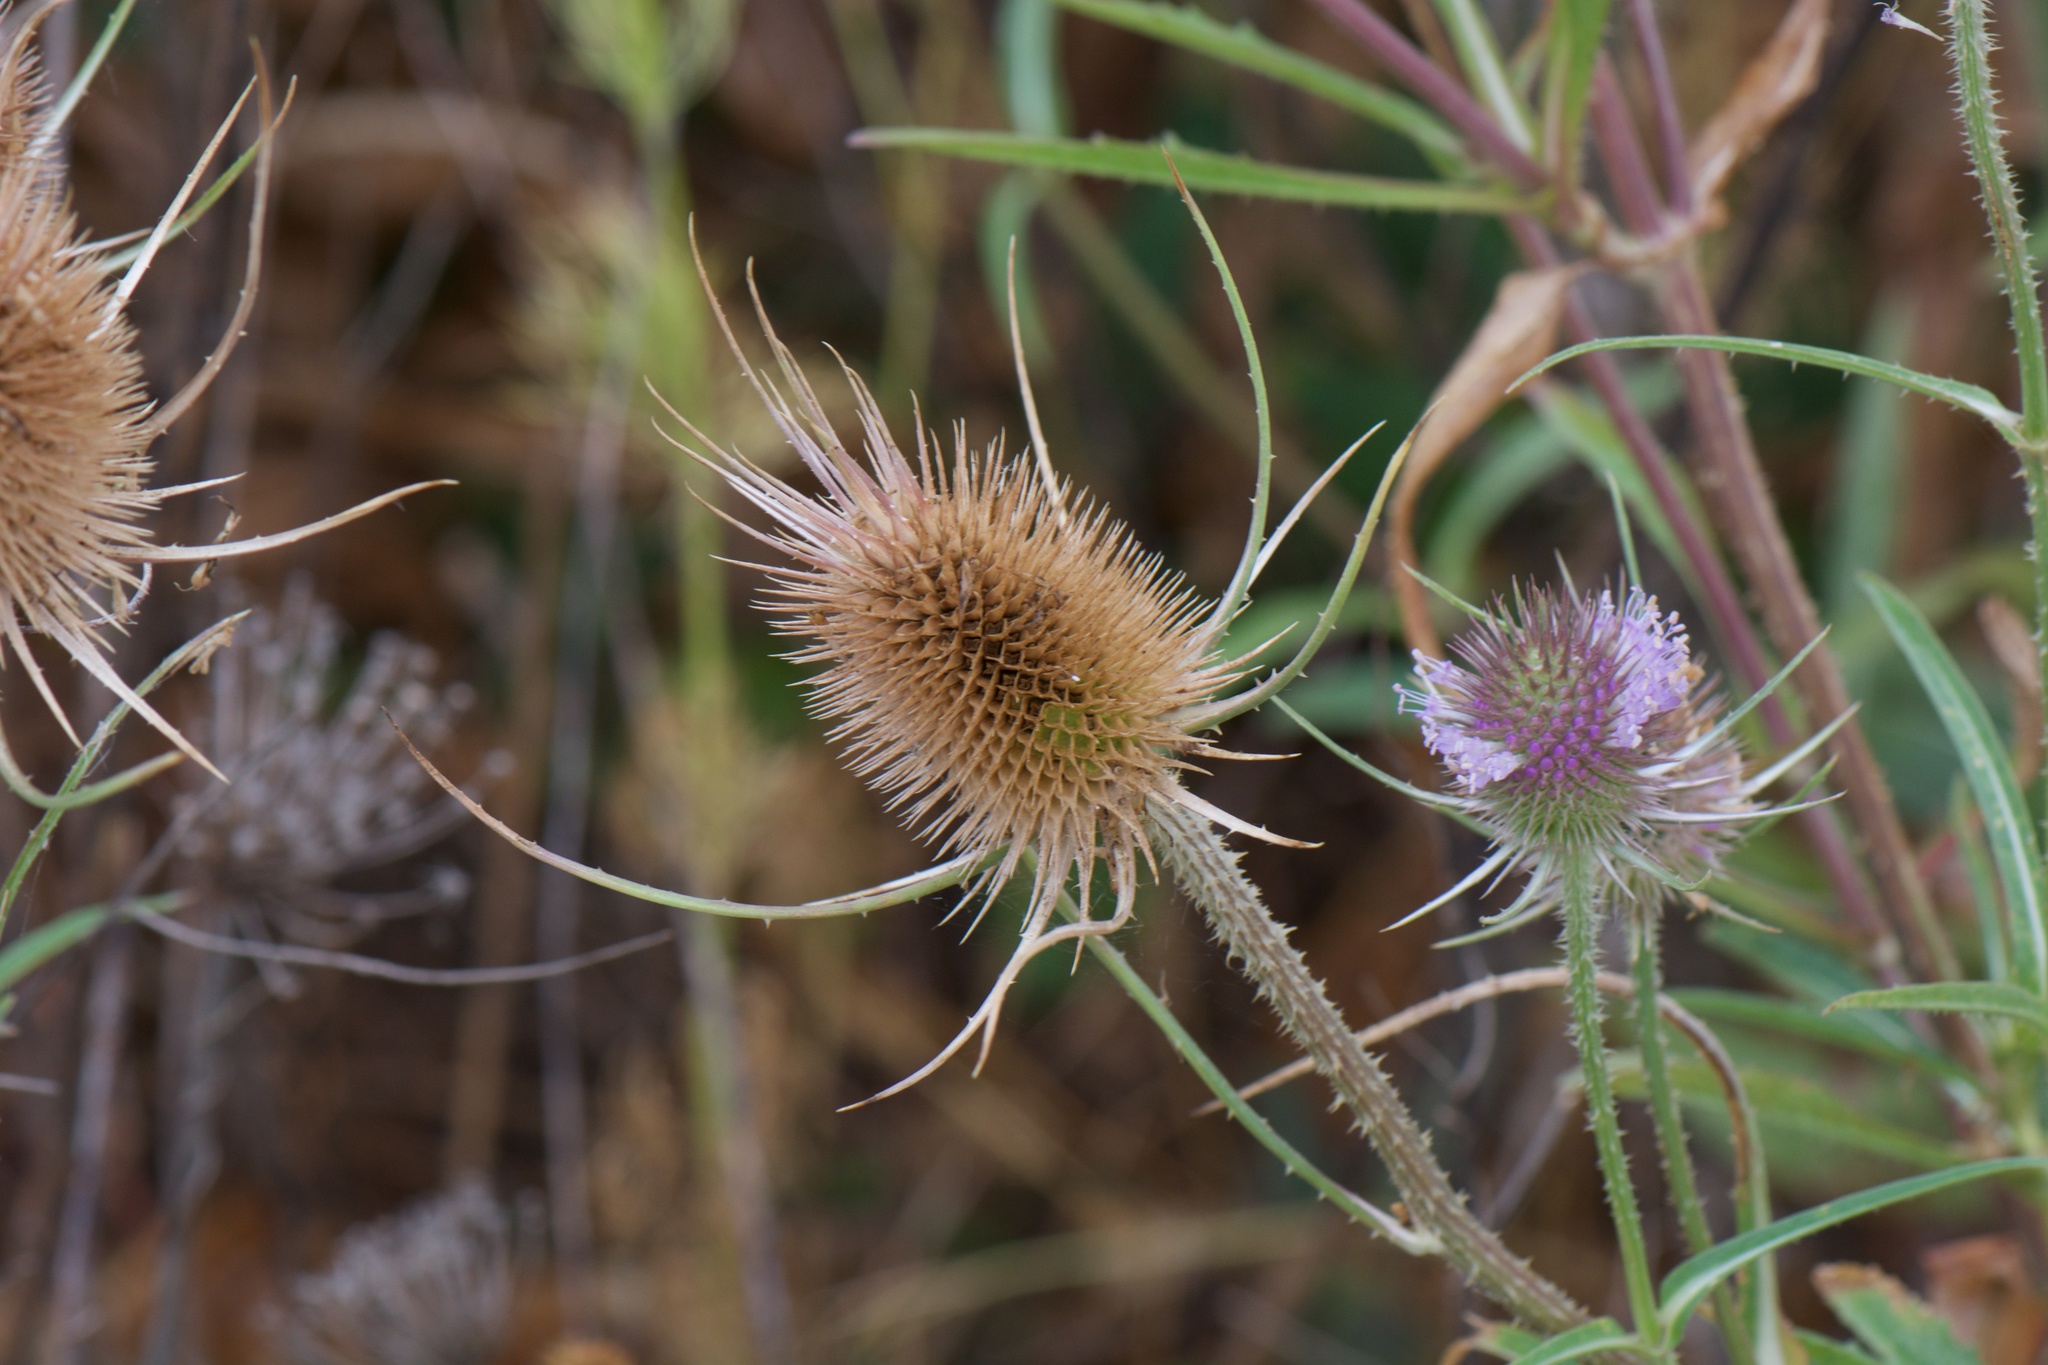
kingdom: Plantae
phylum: Tracheophyta
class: Magnoliopsida
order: Dipsacales
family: Caprifoliaceae
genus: Dipsacus
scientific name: Dipsacus fullonum
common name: Teasel
